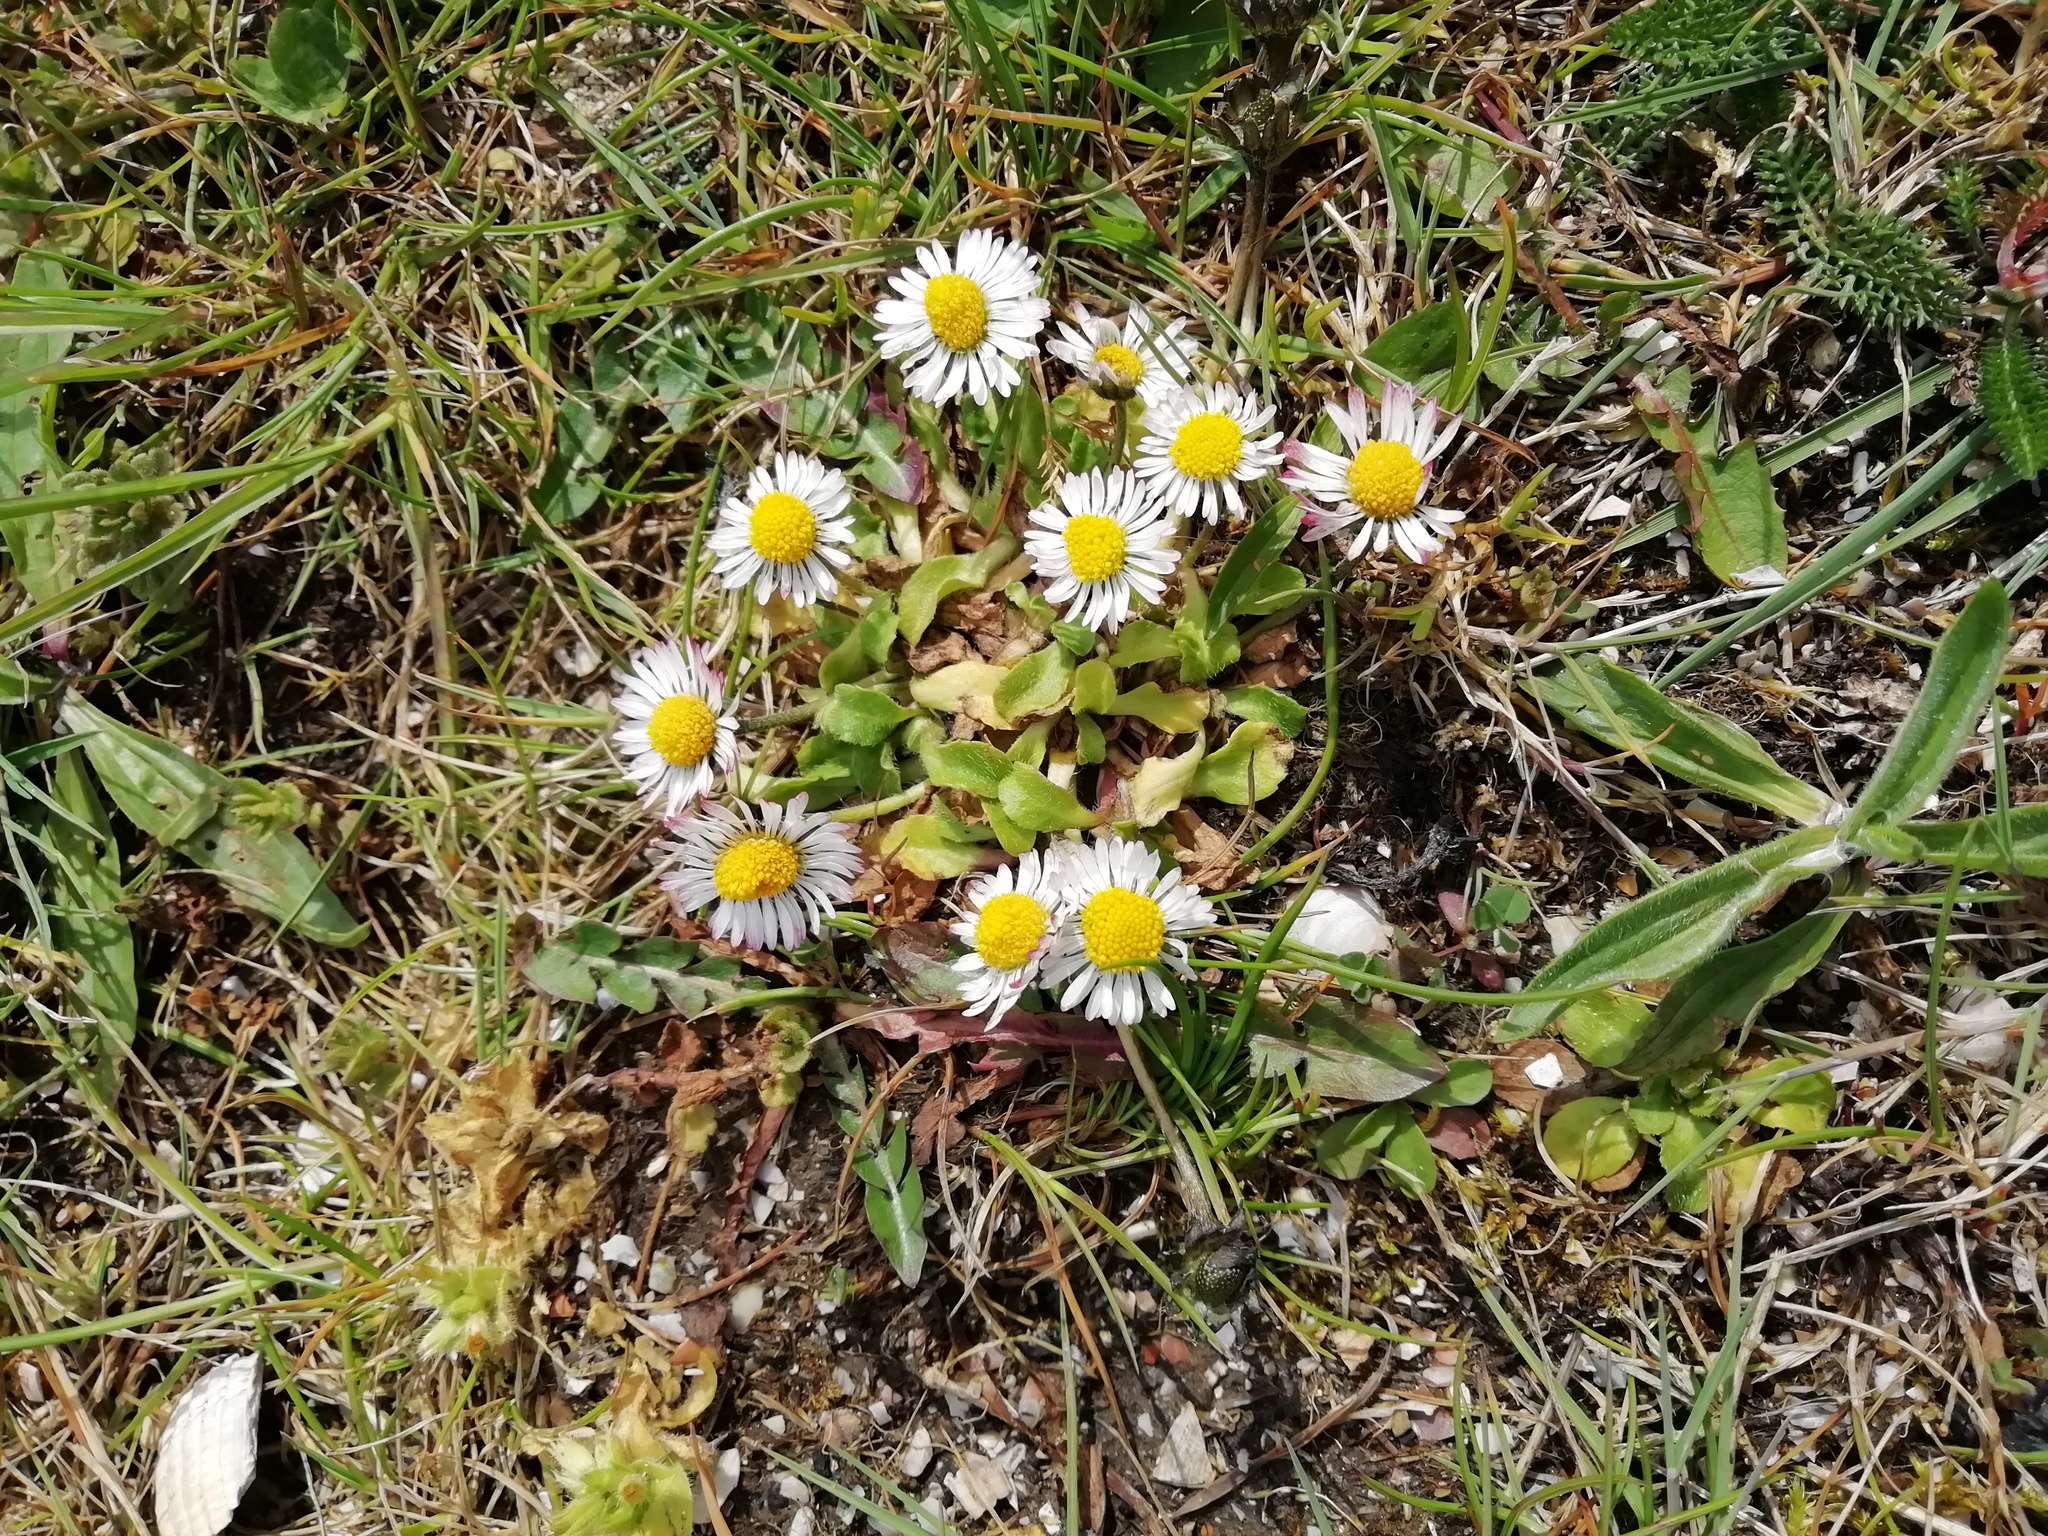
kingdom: Plantae
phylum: Tracheophyta
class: Magnoliopsida
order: Asterales
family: Asteraceae
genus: Bellis
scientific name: Bellis perennis
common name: Lawndaisy
